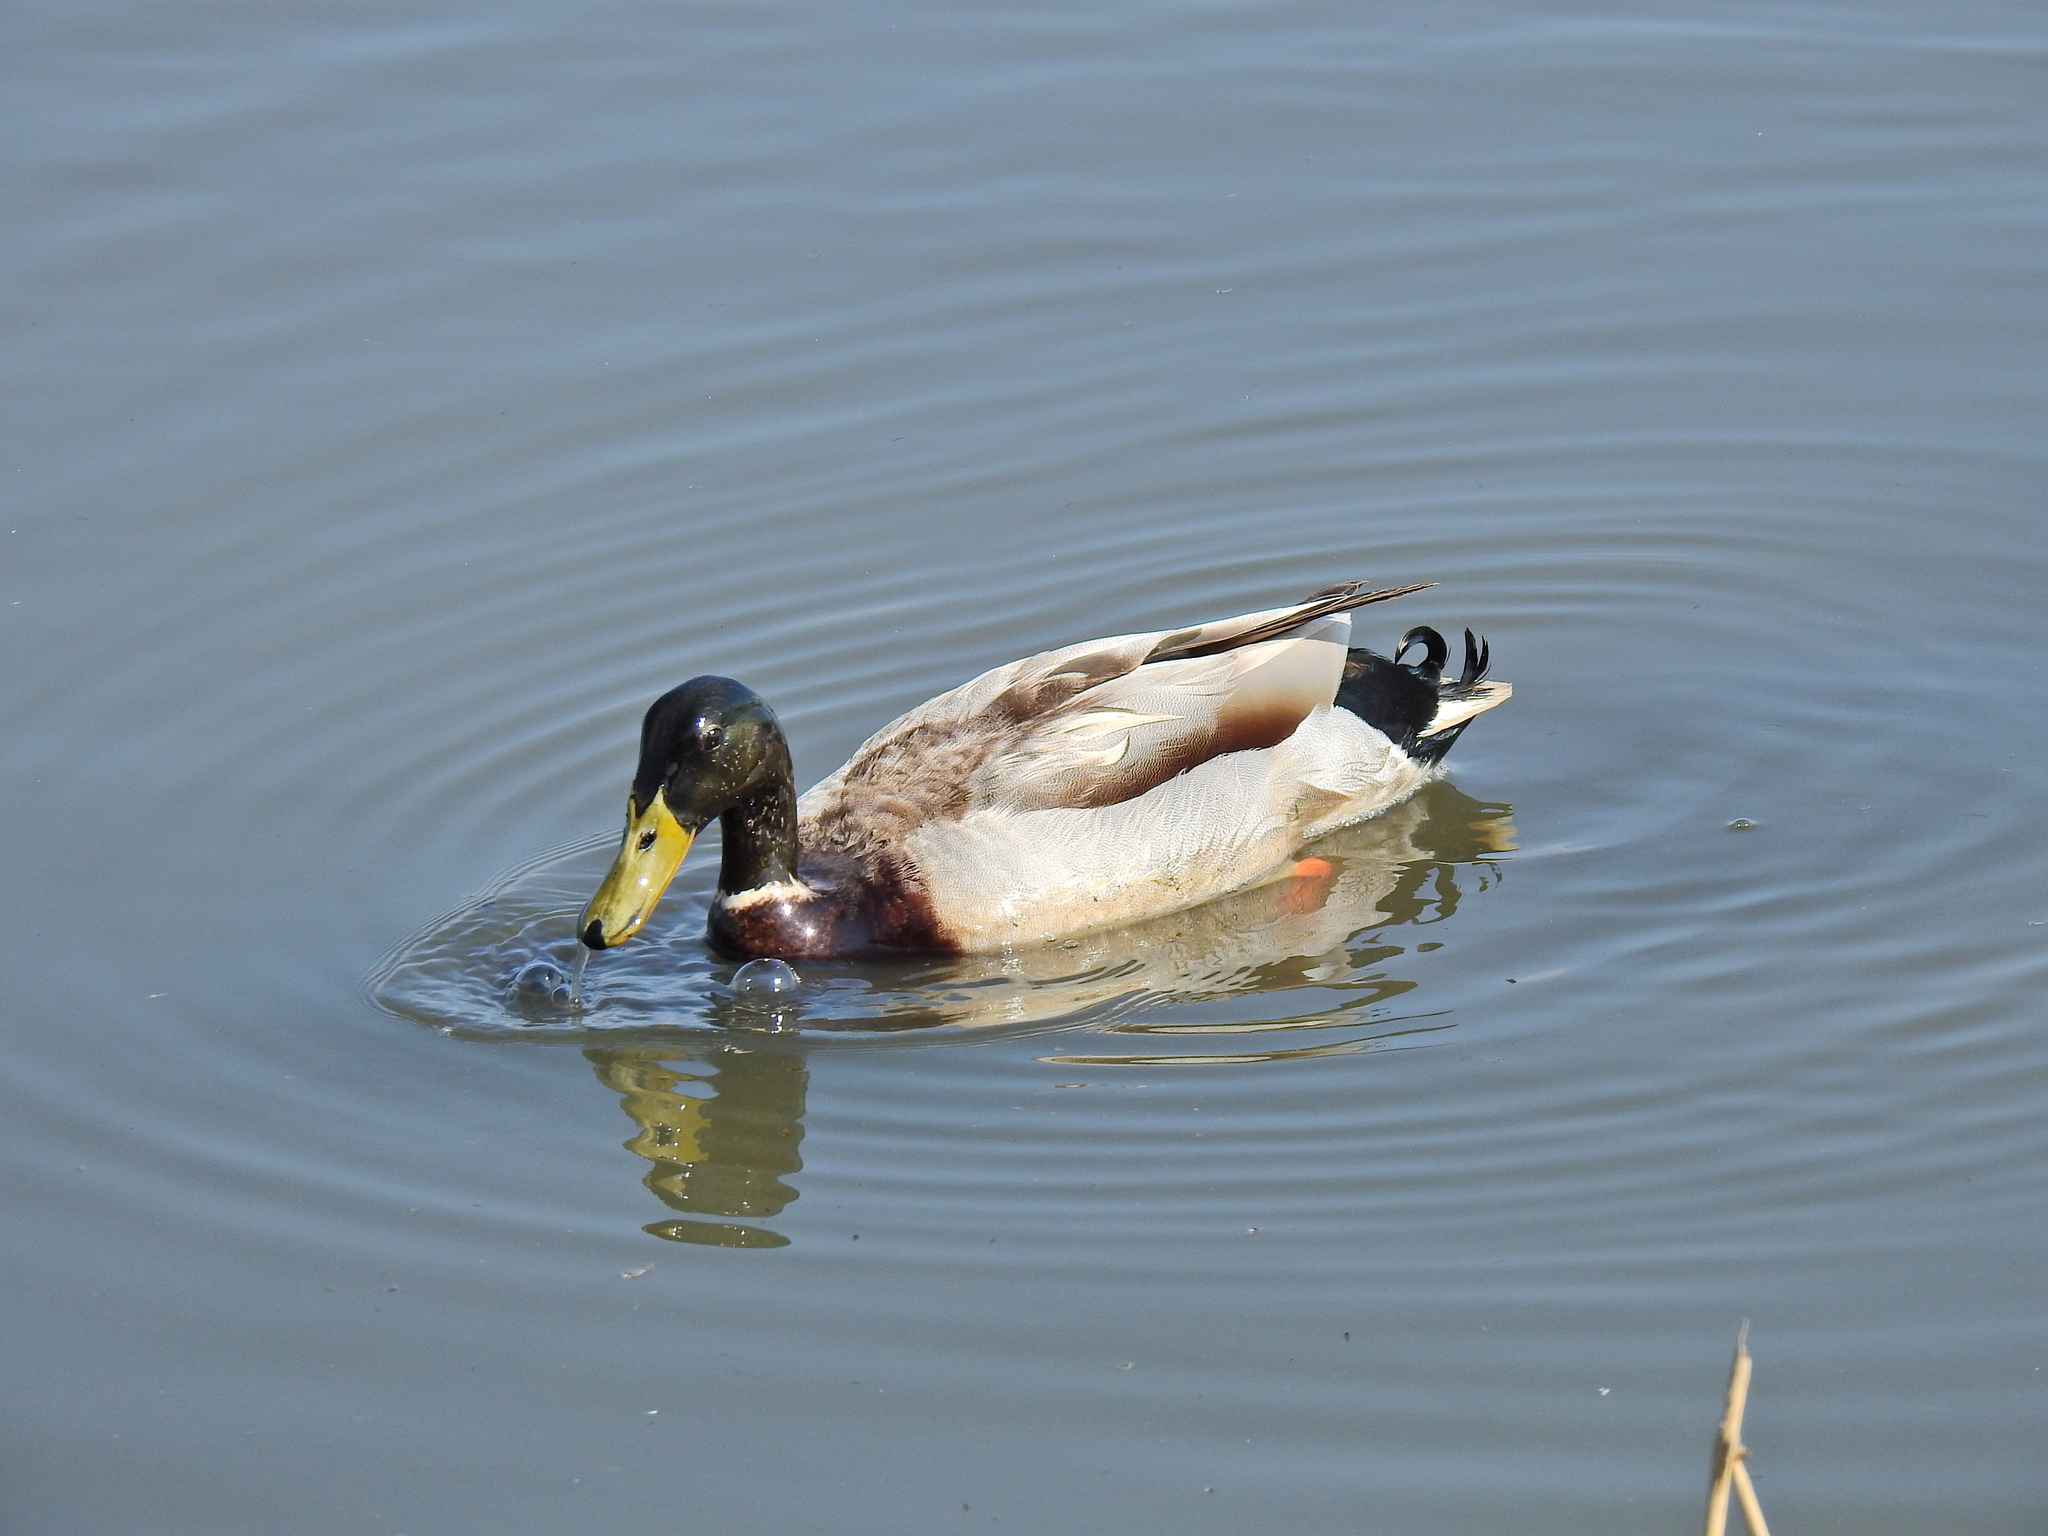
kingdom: Animalia
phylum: Chordata
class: Aves
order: Anseriformes
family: Anatidae
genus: Anas
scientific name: Anas platyrhynchos
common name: Mallard
